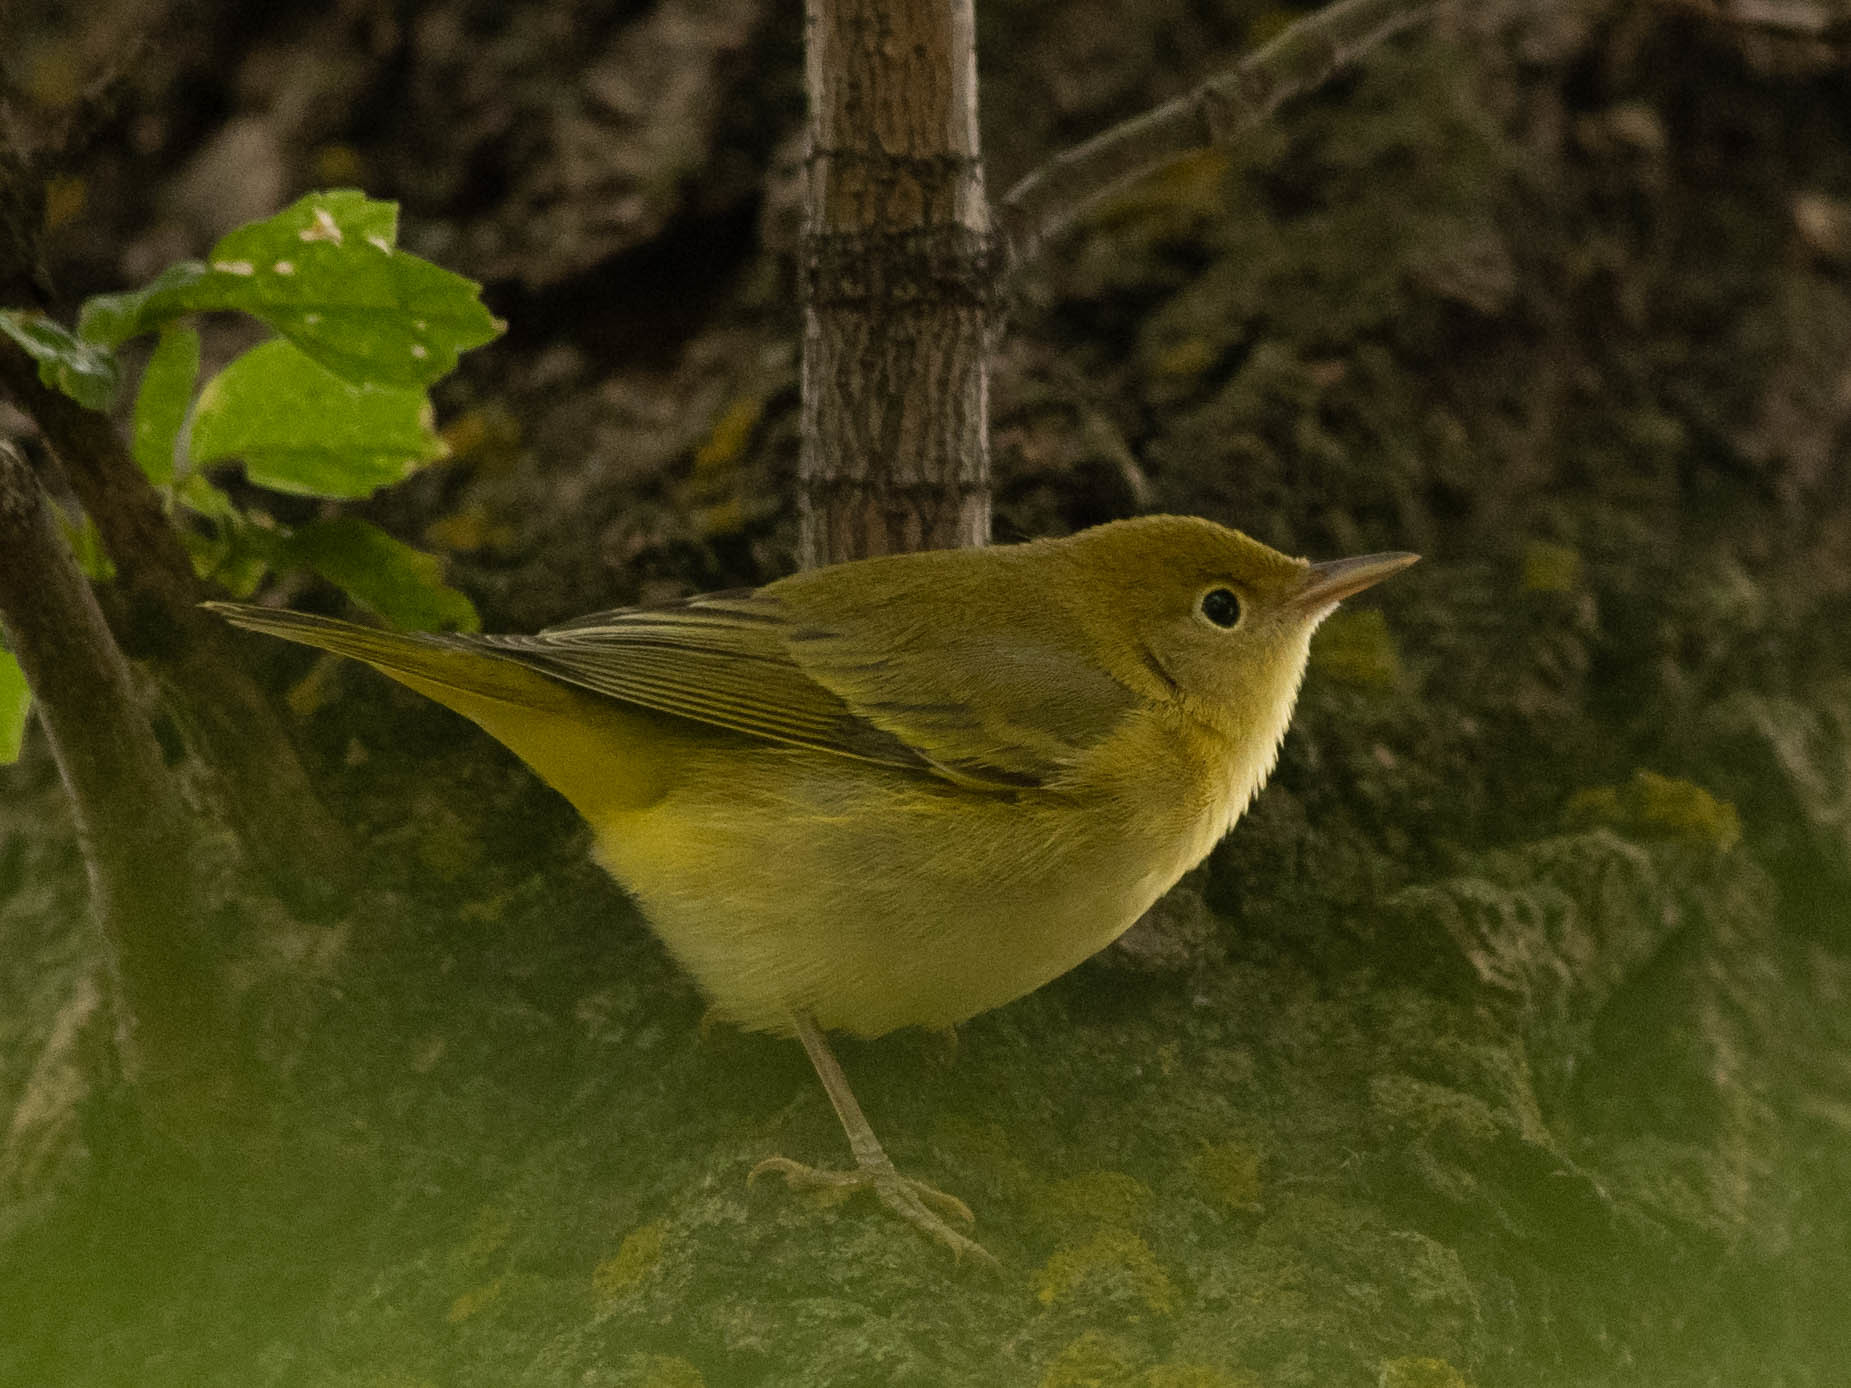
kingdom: Animalia
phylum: Chordata
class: Aves
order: Passeriformes
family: Parulidae
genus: Setophaga
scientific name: Setophaga petechia
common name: Yellow warbler
